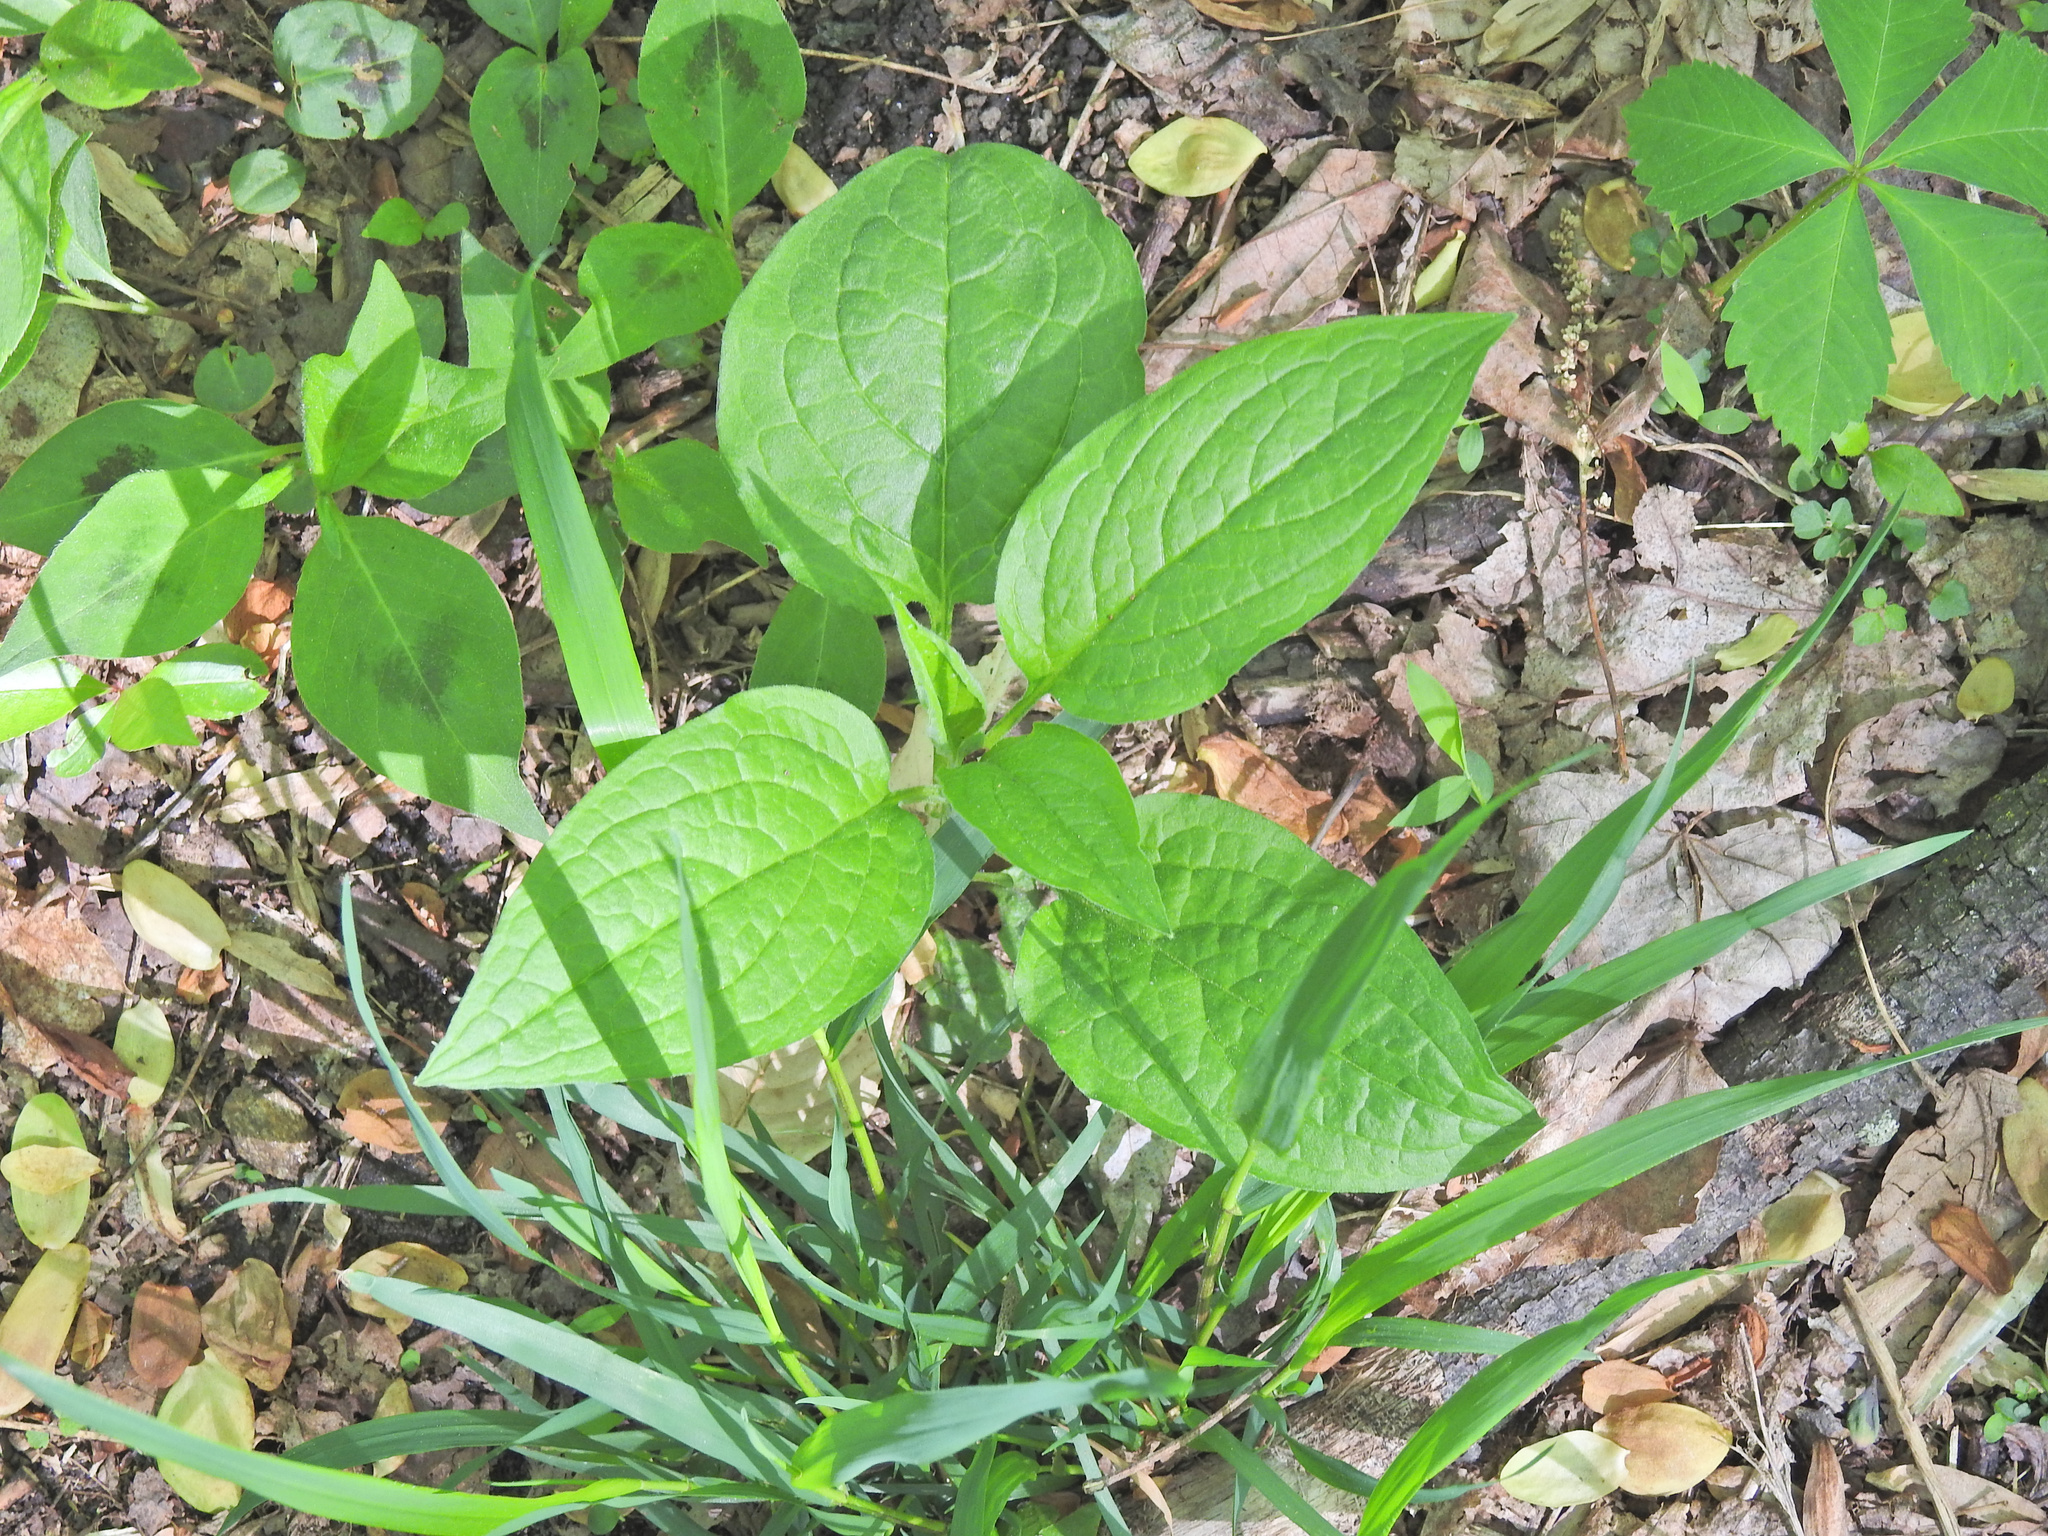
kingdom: Plantae
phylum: Tracheophyta
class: Magnoliopsida
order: Boraginales
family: Boraginaceae
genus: Hackelia
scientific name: Hackelia virginiana
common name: Beggar's-lice
